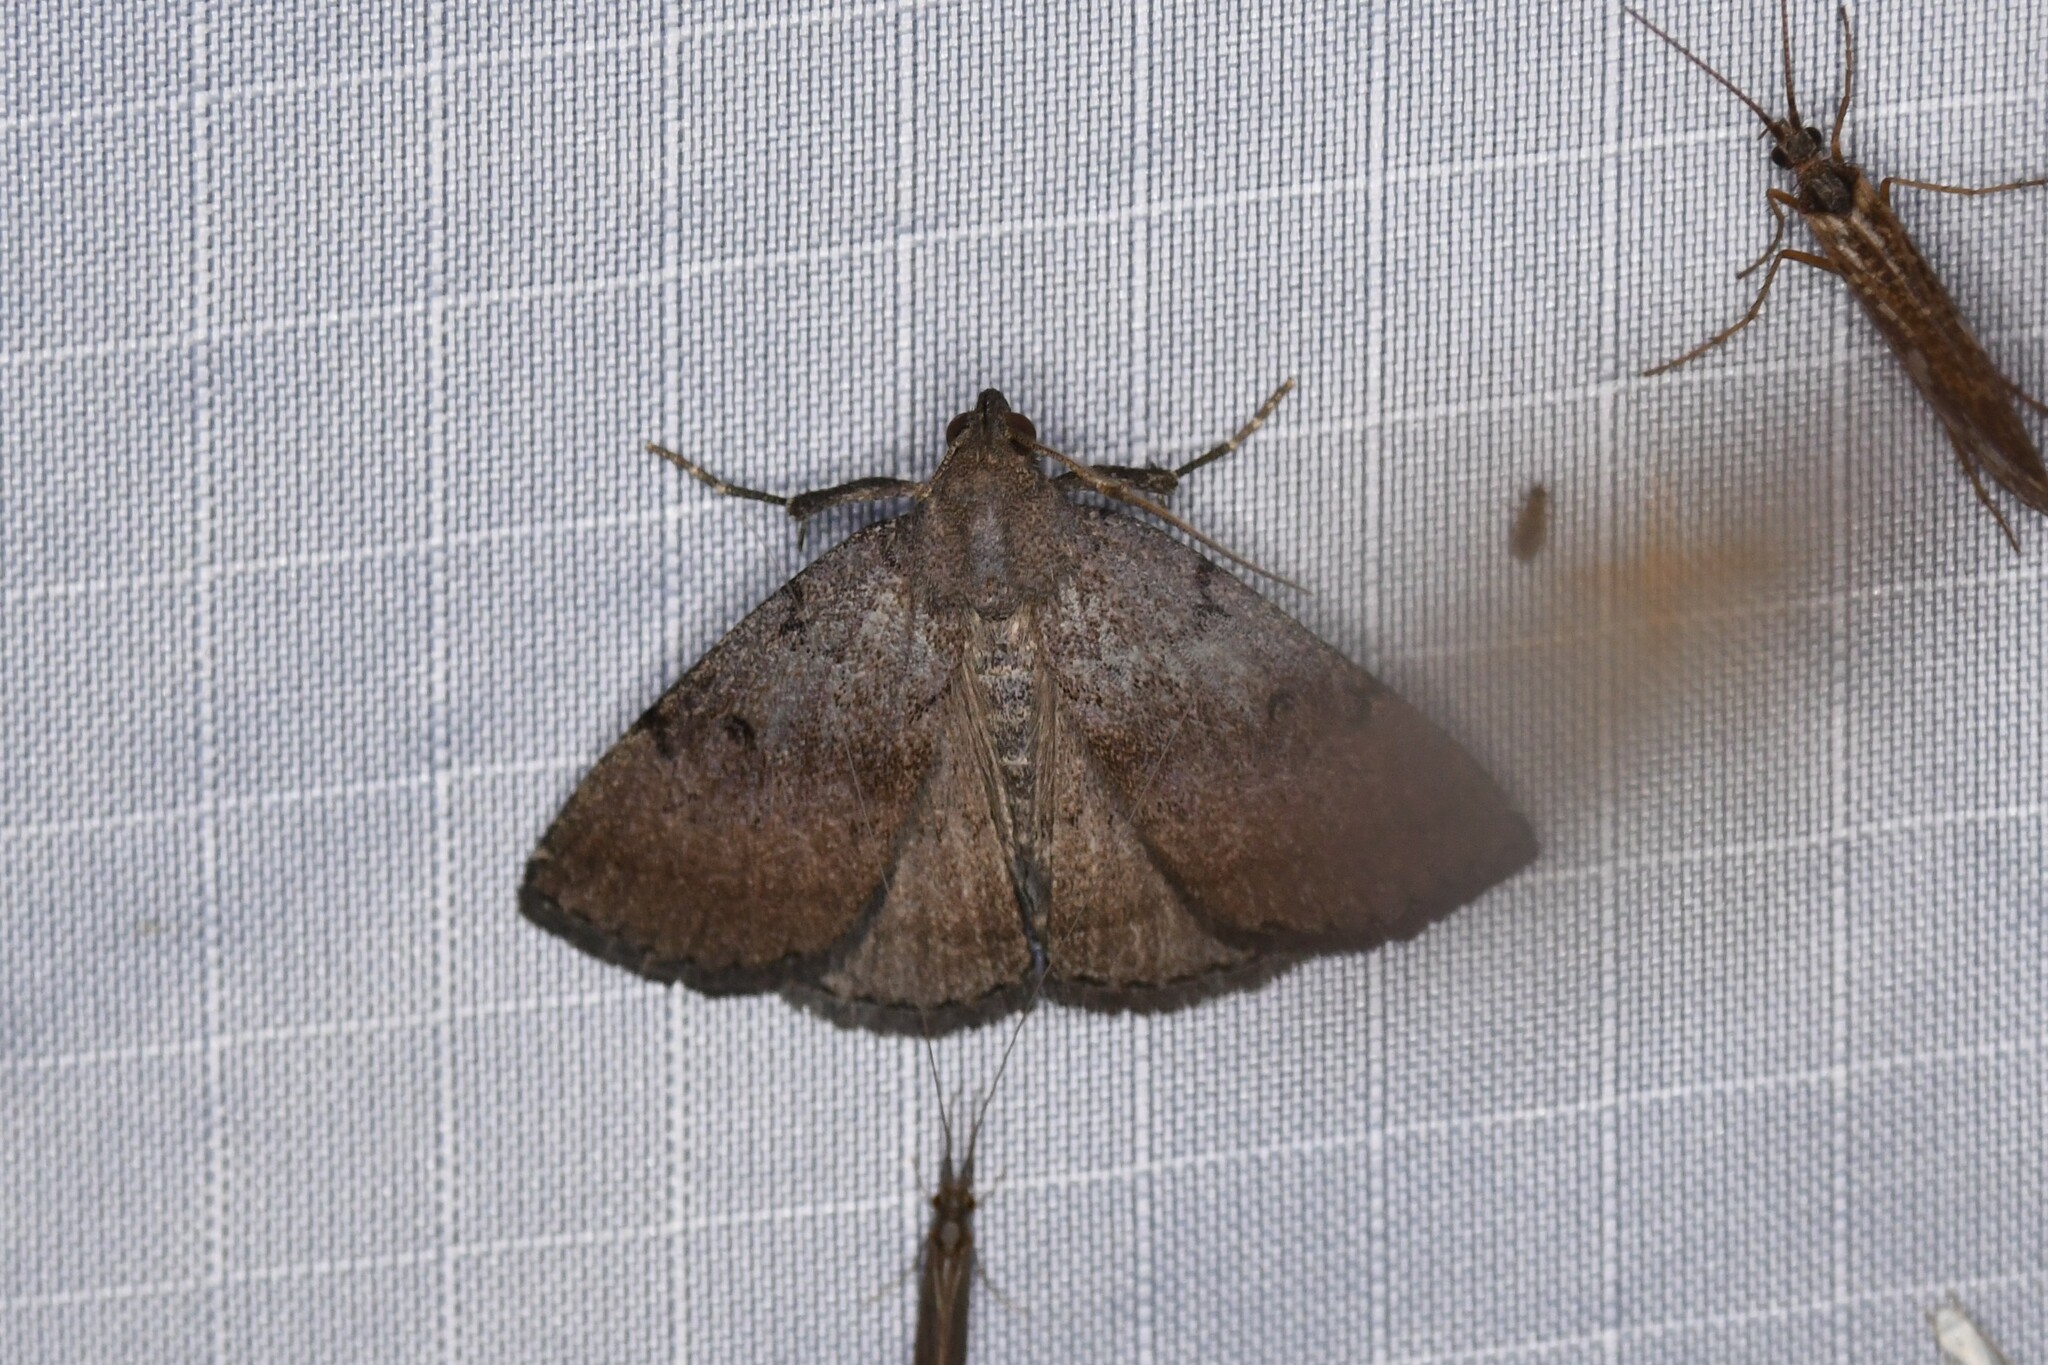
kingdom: Animalia
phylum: Arthropoda
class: Insecta
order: Lepidoptera
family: Erebidae
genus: Zanclognatha
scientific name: Zanclognatha martha
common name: Pine barrens zanclognatha
